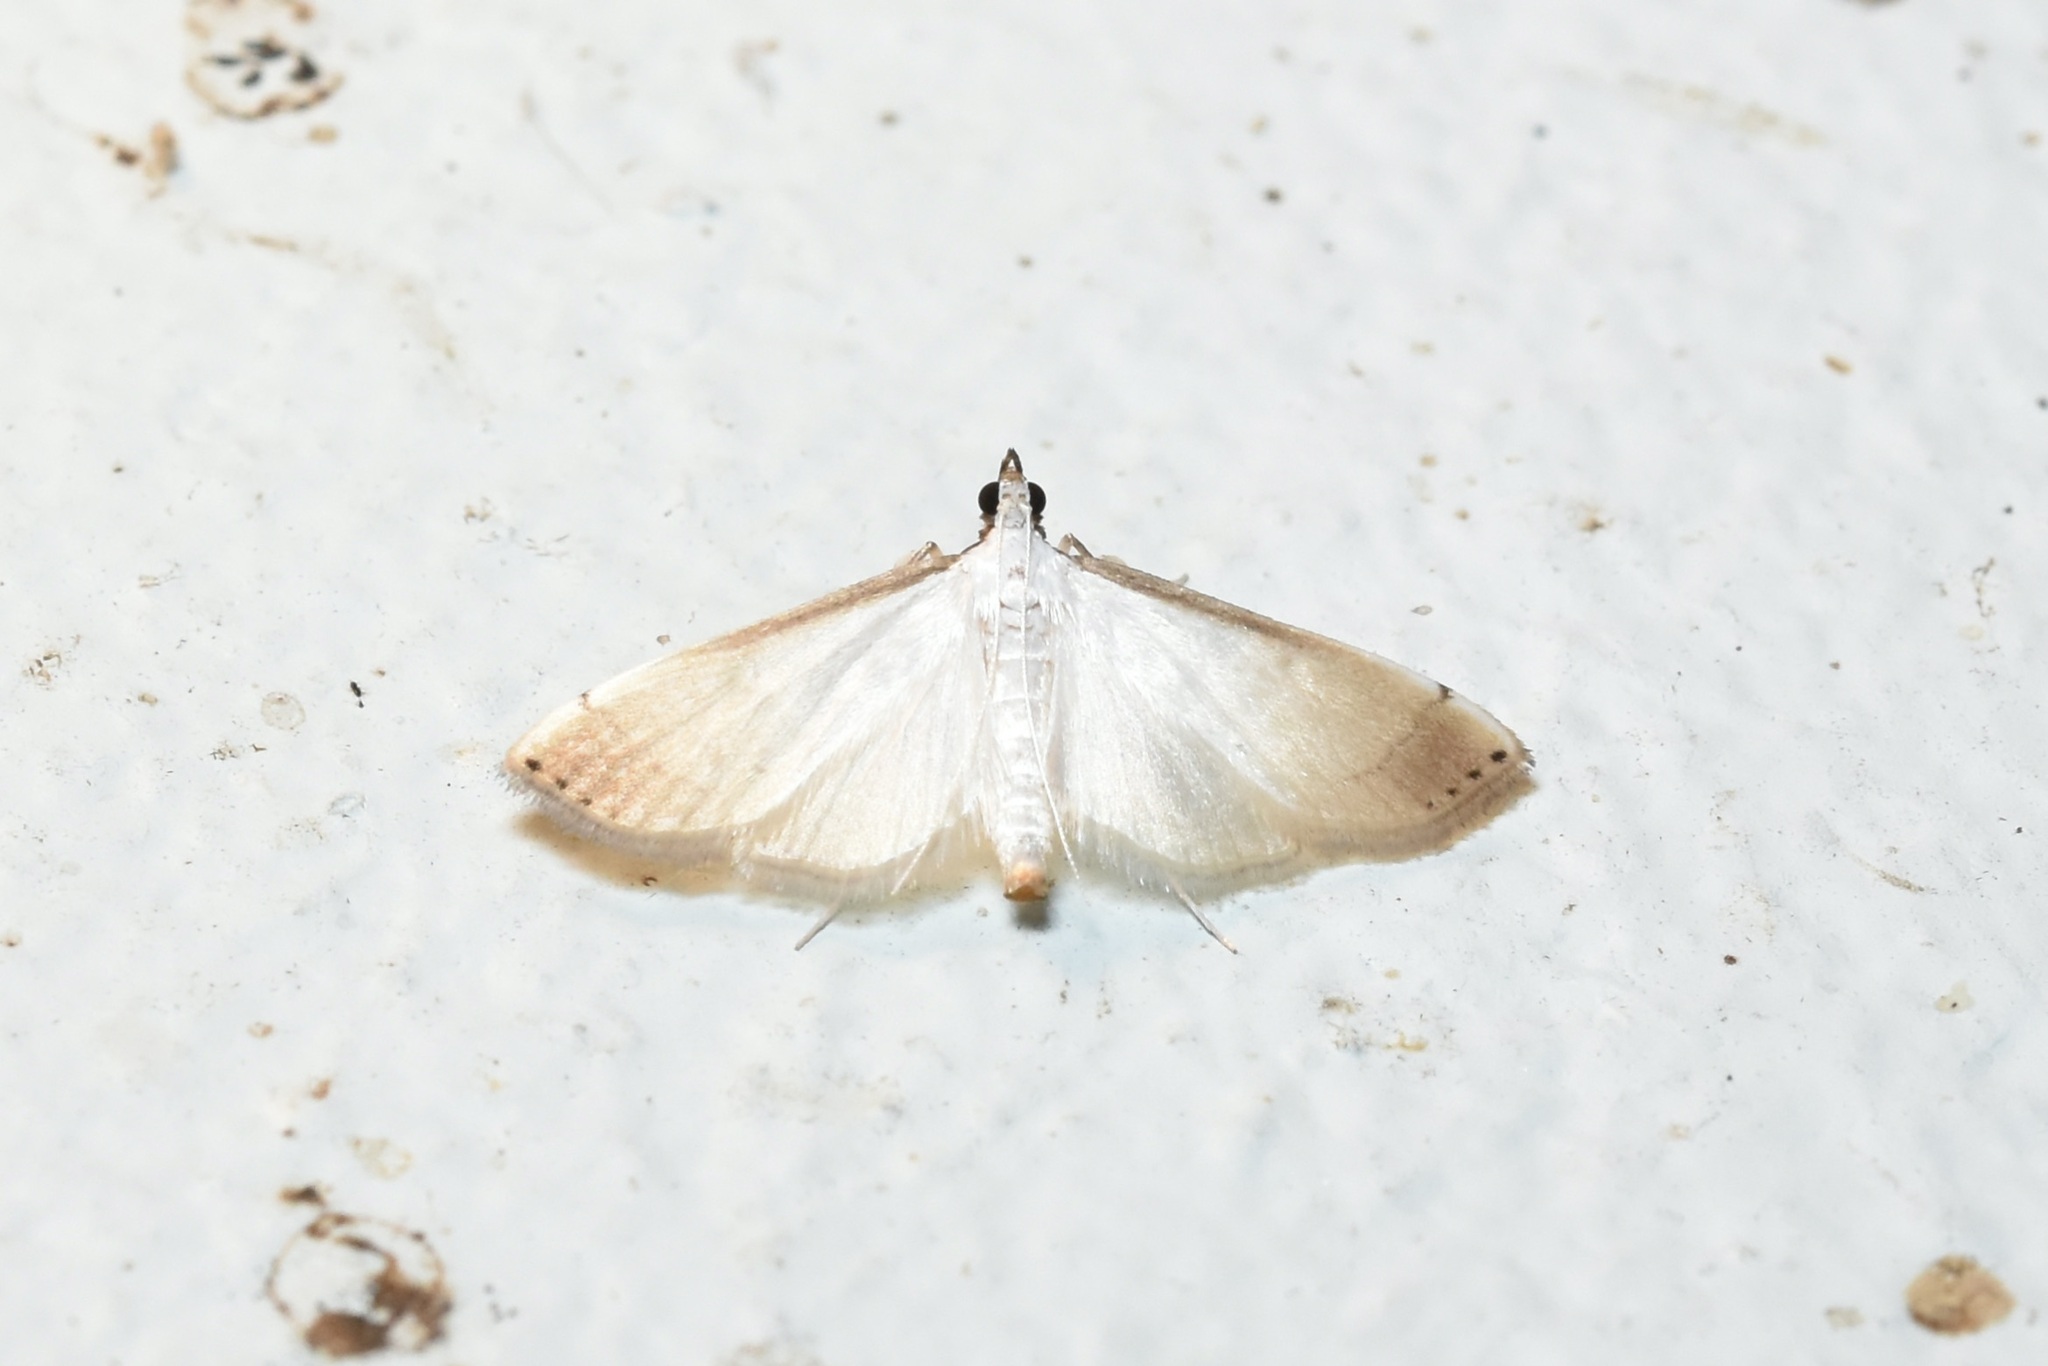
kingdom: Animalia
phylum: Arthropoda
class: Insecta
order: Lepidoptera
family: Crambidae
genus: Stenia
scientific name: Stenia saurialis
